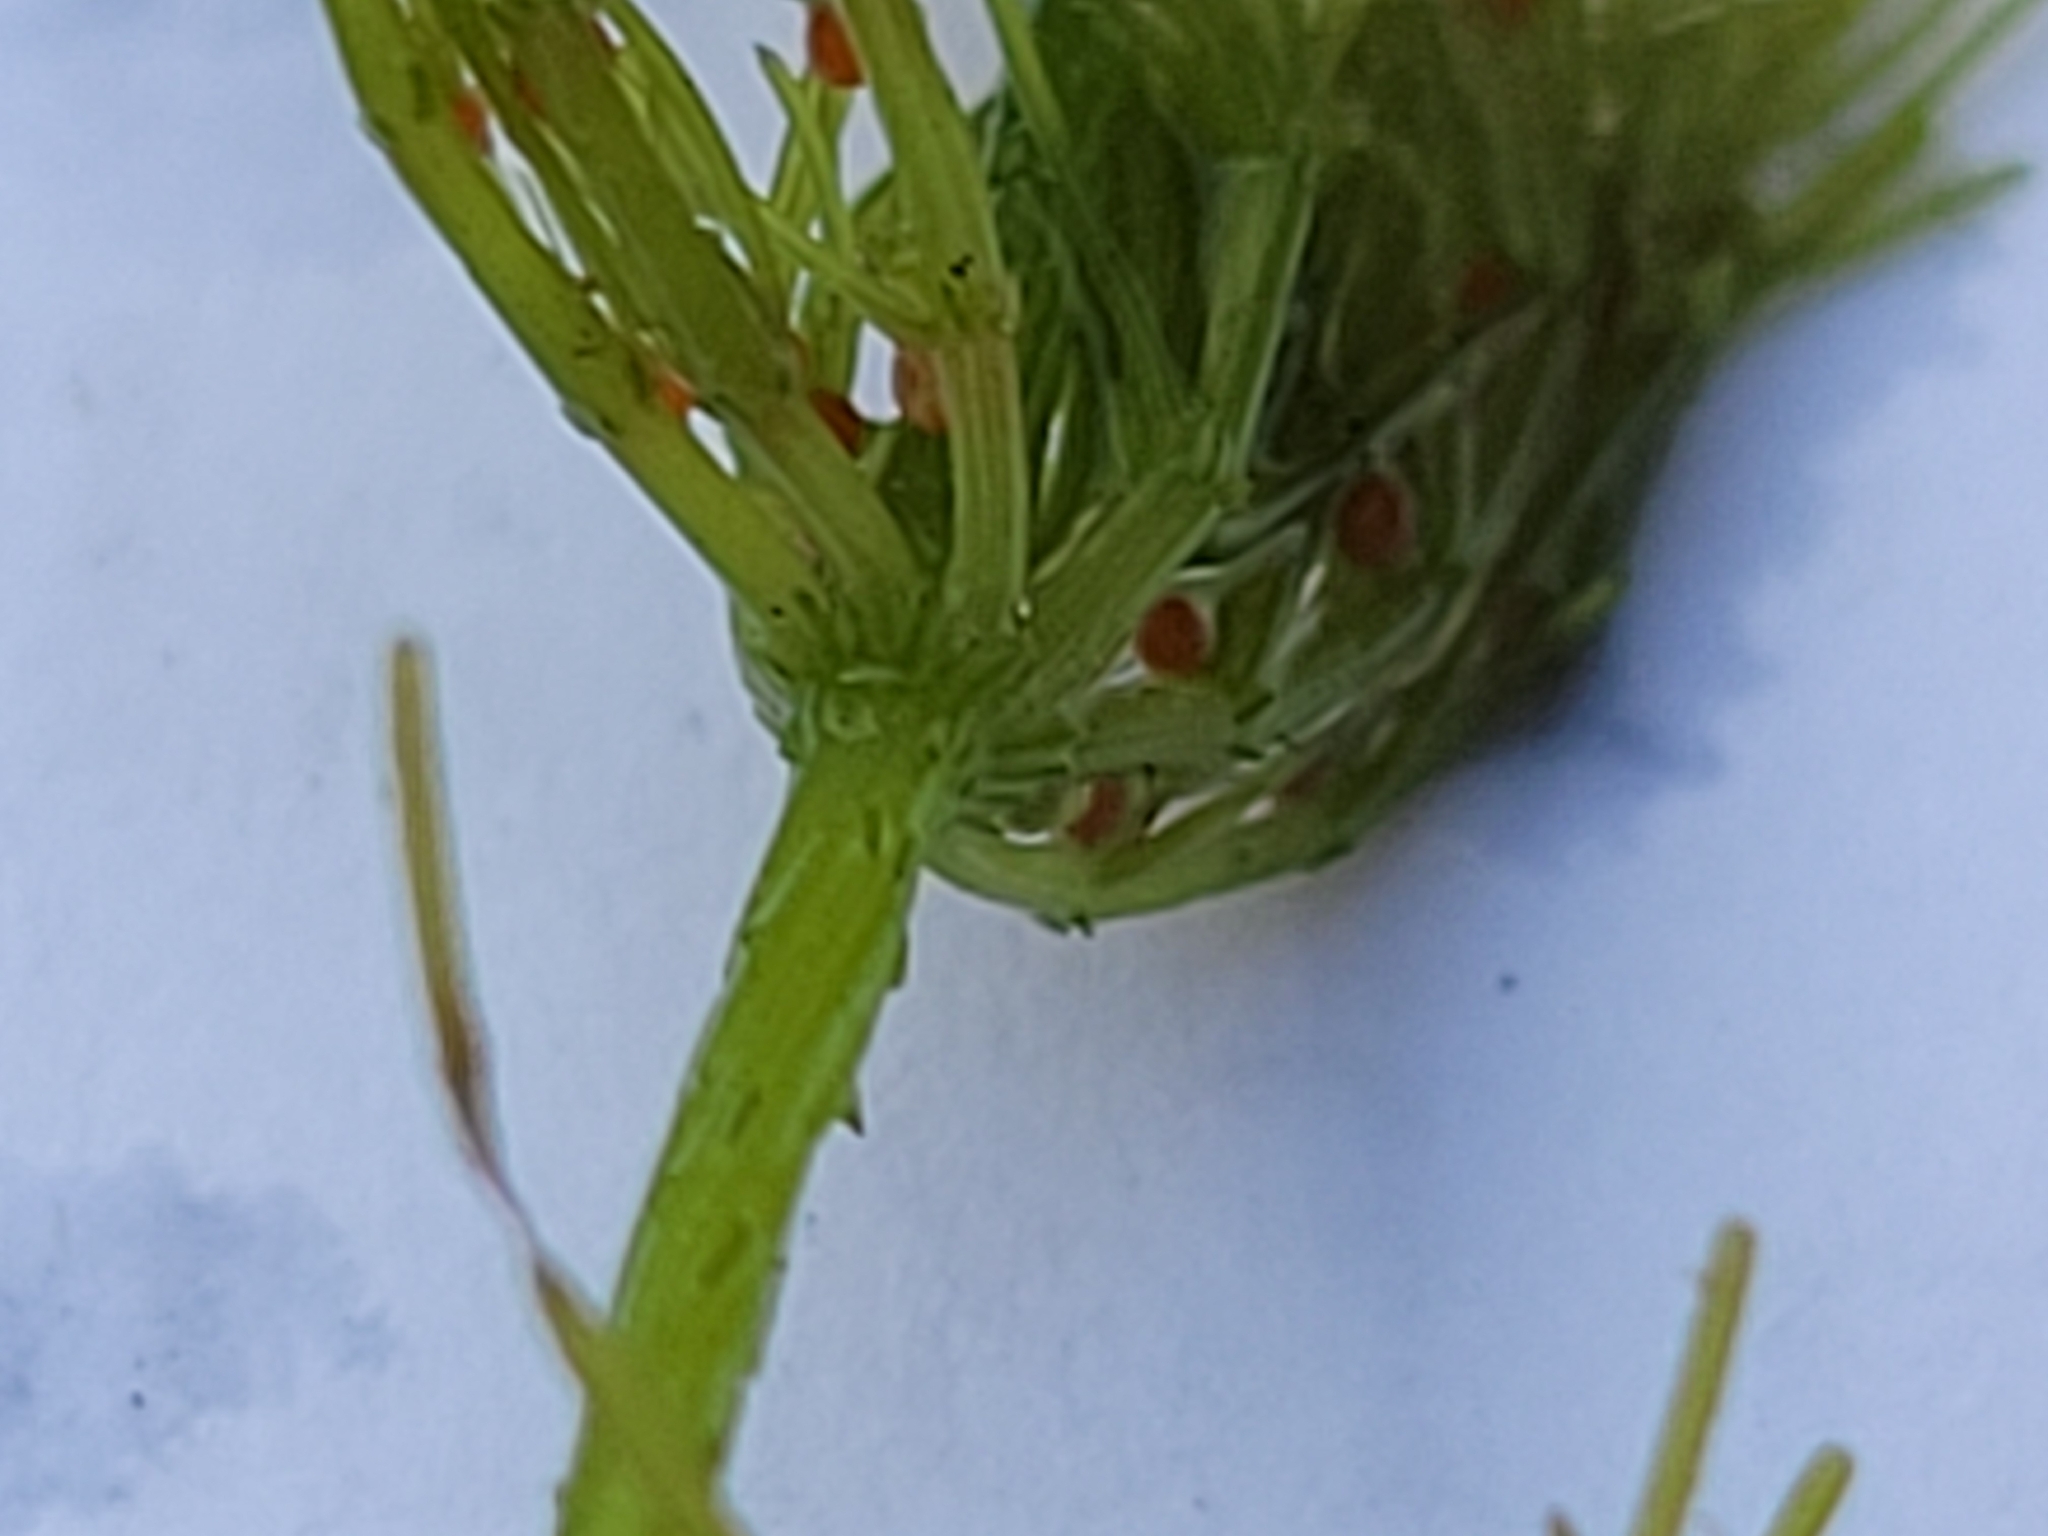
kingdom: Plantae
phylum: Charophyta
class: Charophyceae
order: Charales
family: Characeae
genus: Chara
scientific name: Chara vulgaris
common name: Common stonewort
